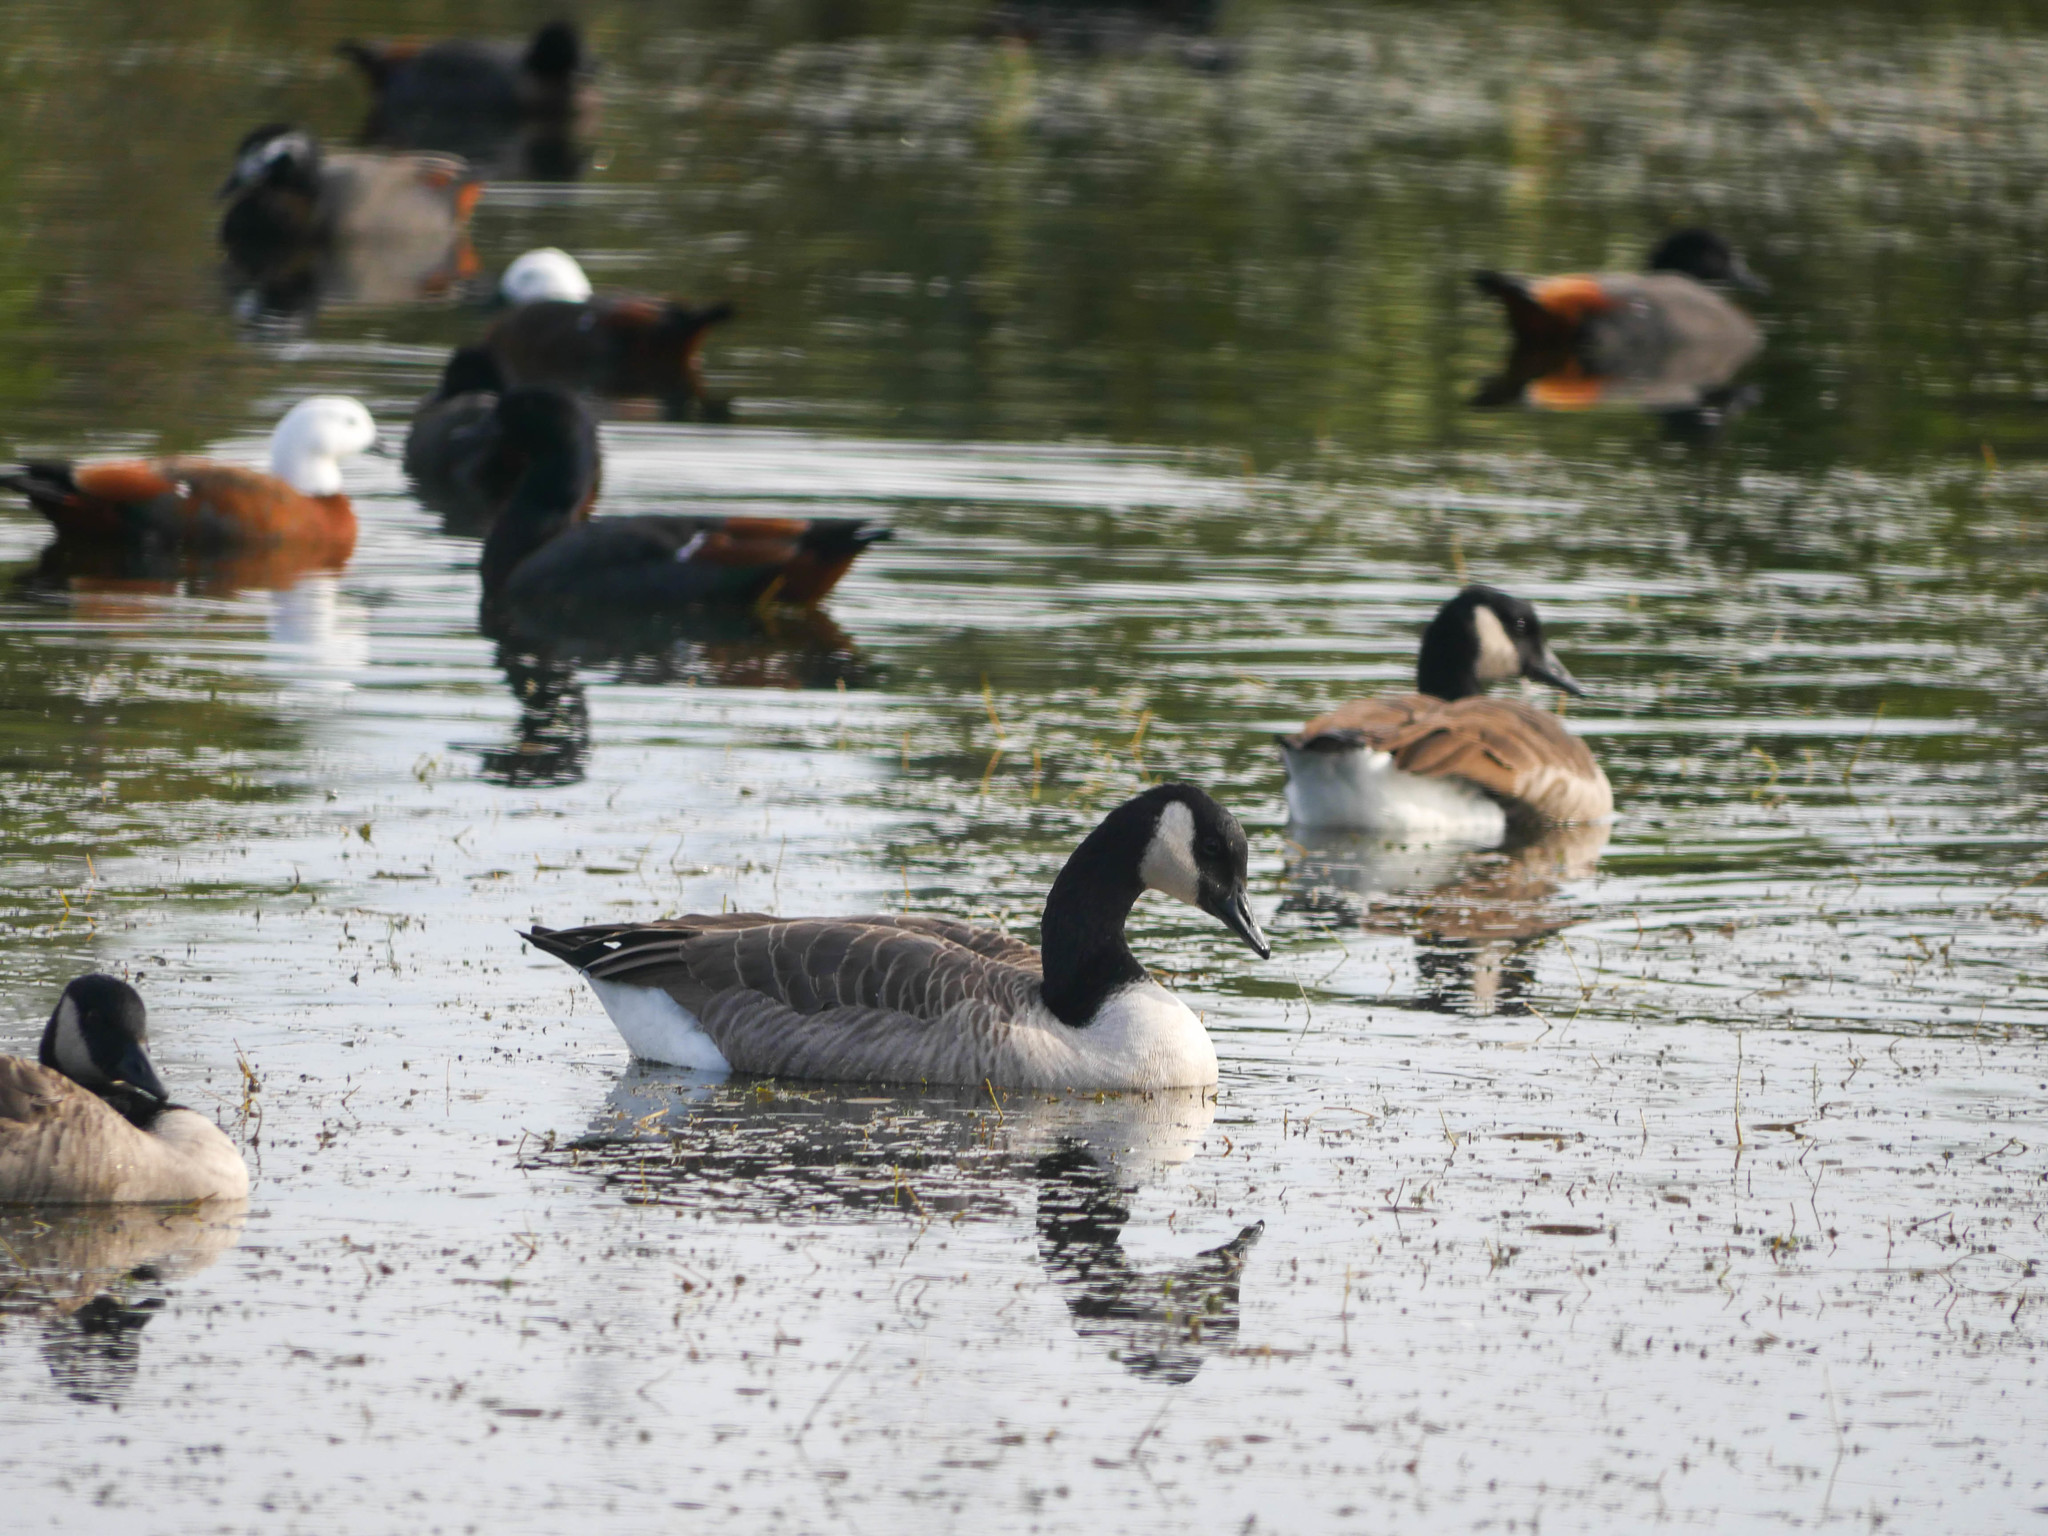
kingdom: Animalia
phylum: Chordata
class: Aves
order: Anseriformes
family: Anatidae
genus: Branta
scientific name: Branta canadensis
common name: Canada goose
